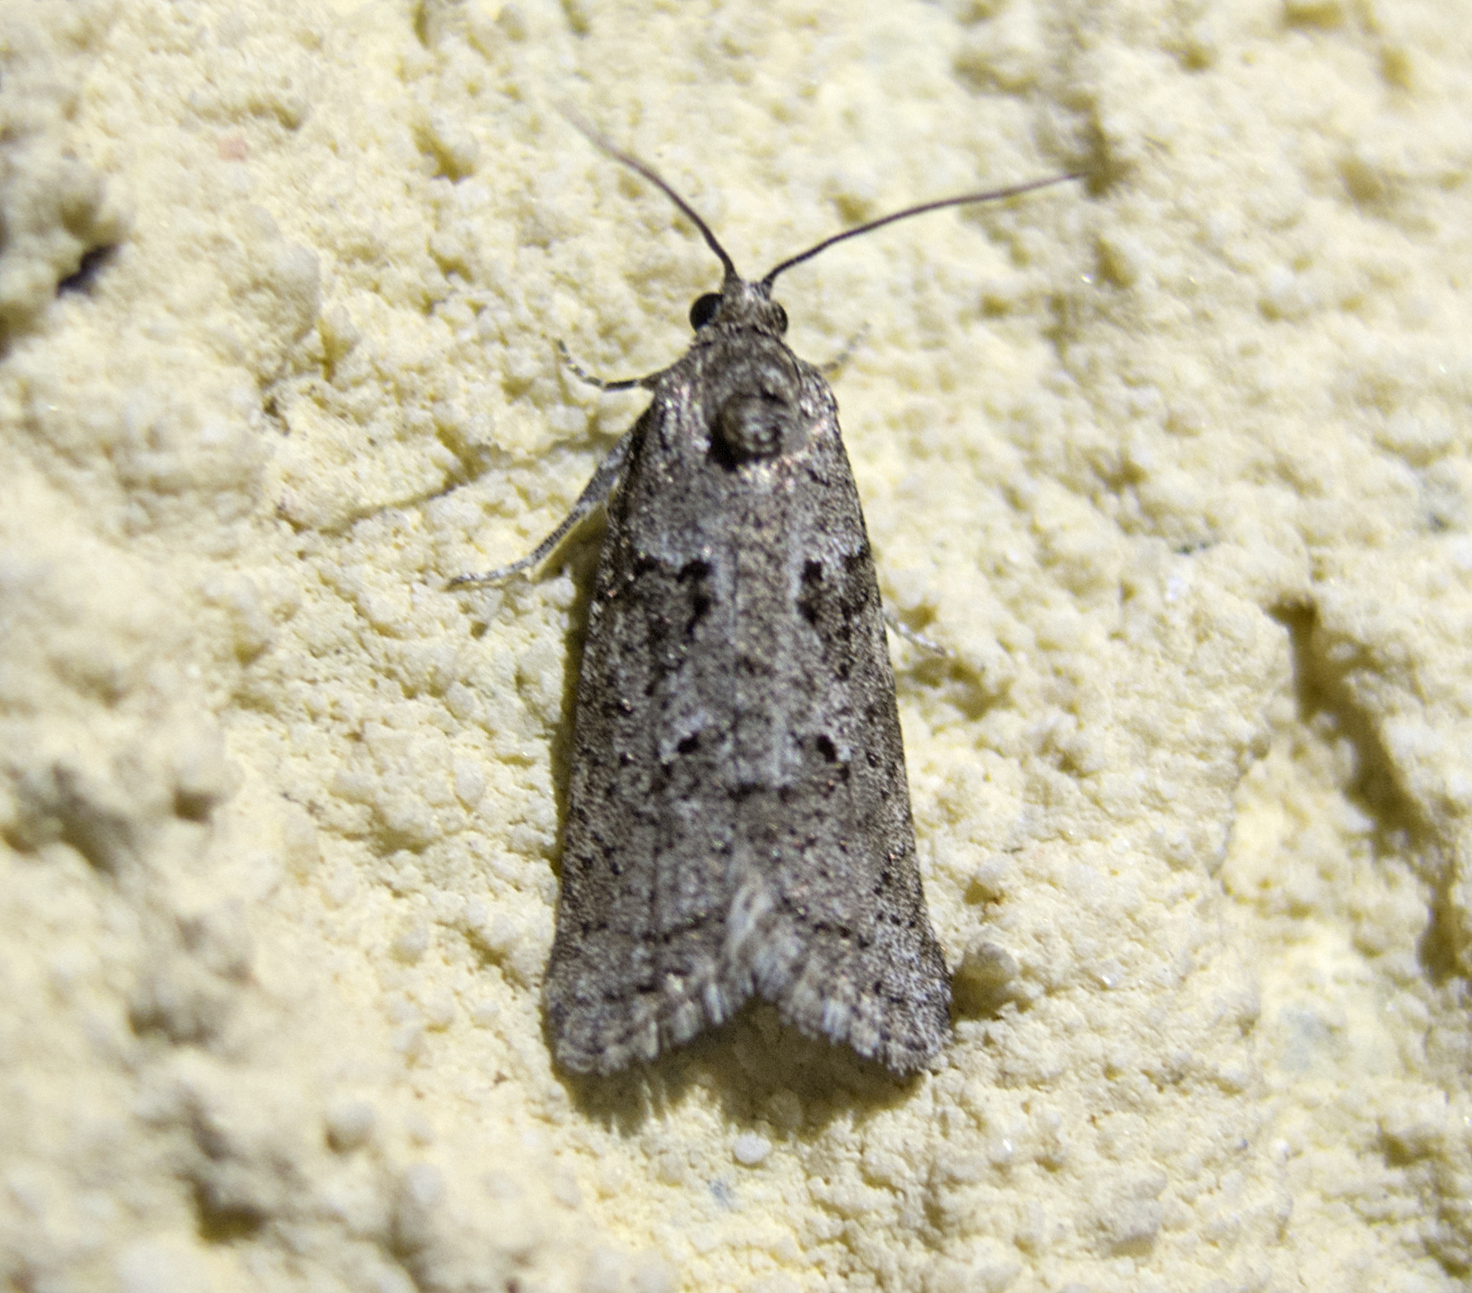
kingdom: Animalia
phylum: Arthropoda
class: Insecta
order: Lepidoptera
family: Tortricidae
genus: Cnephasia
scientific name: Cnephasia communana
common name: May shade
